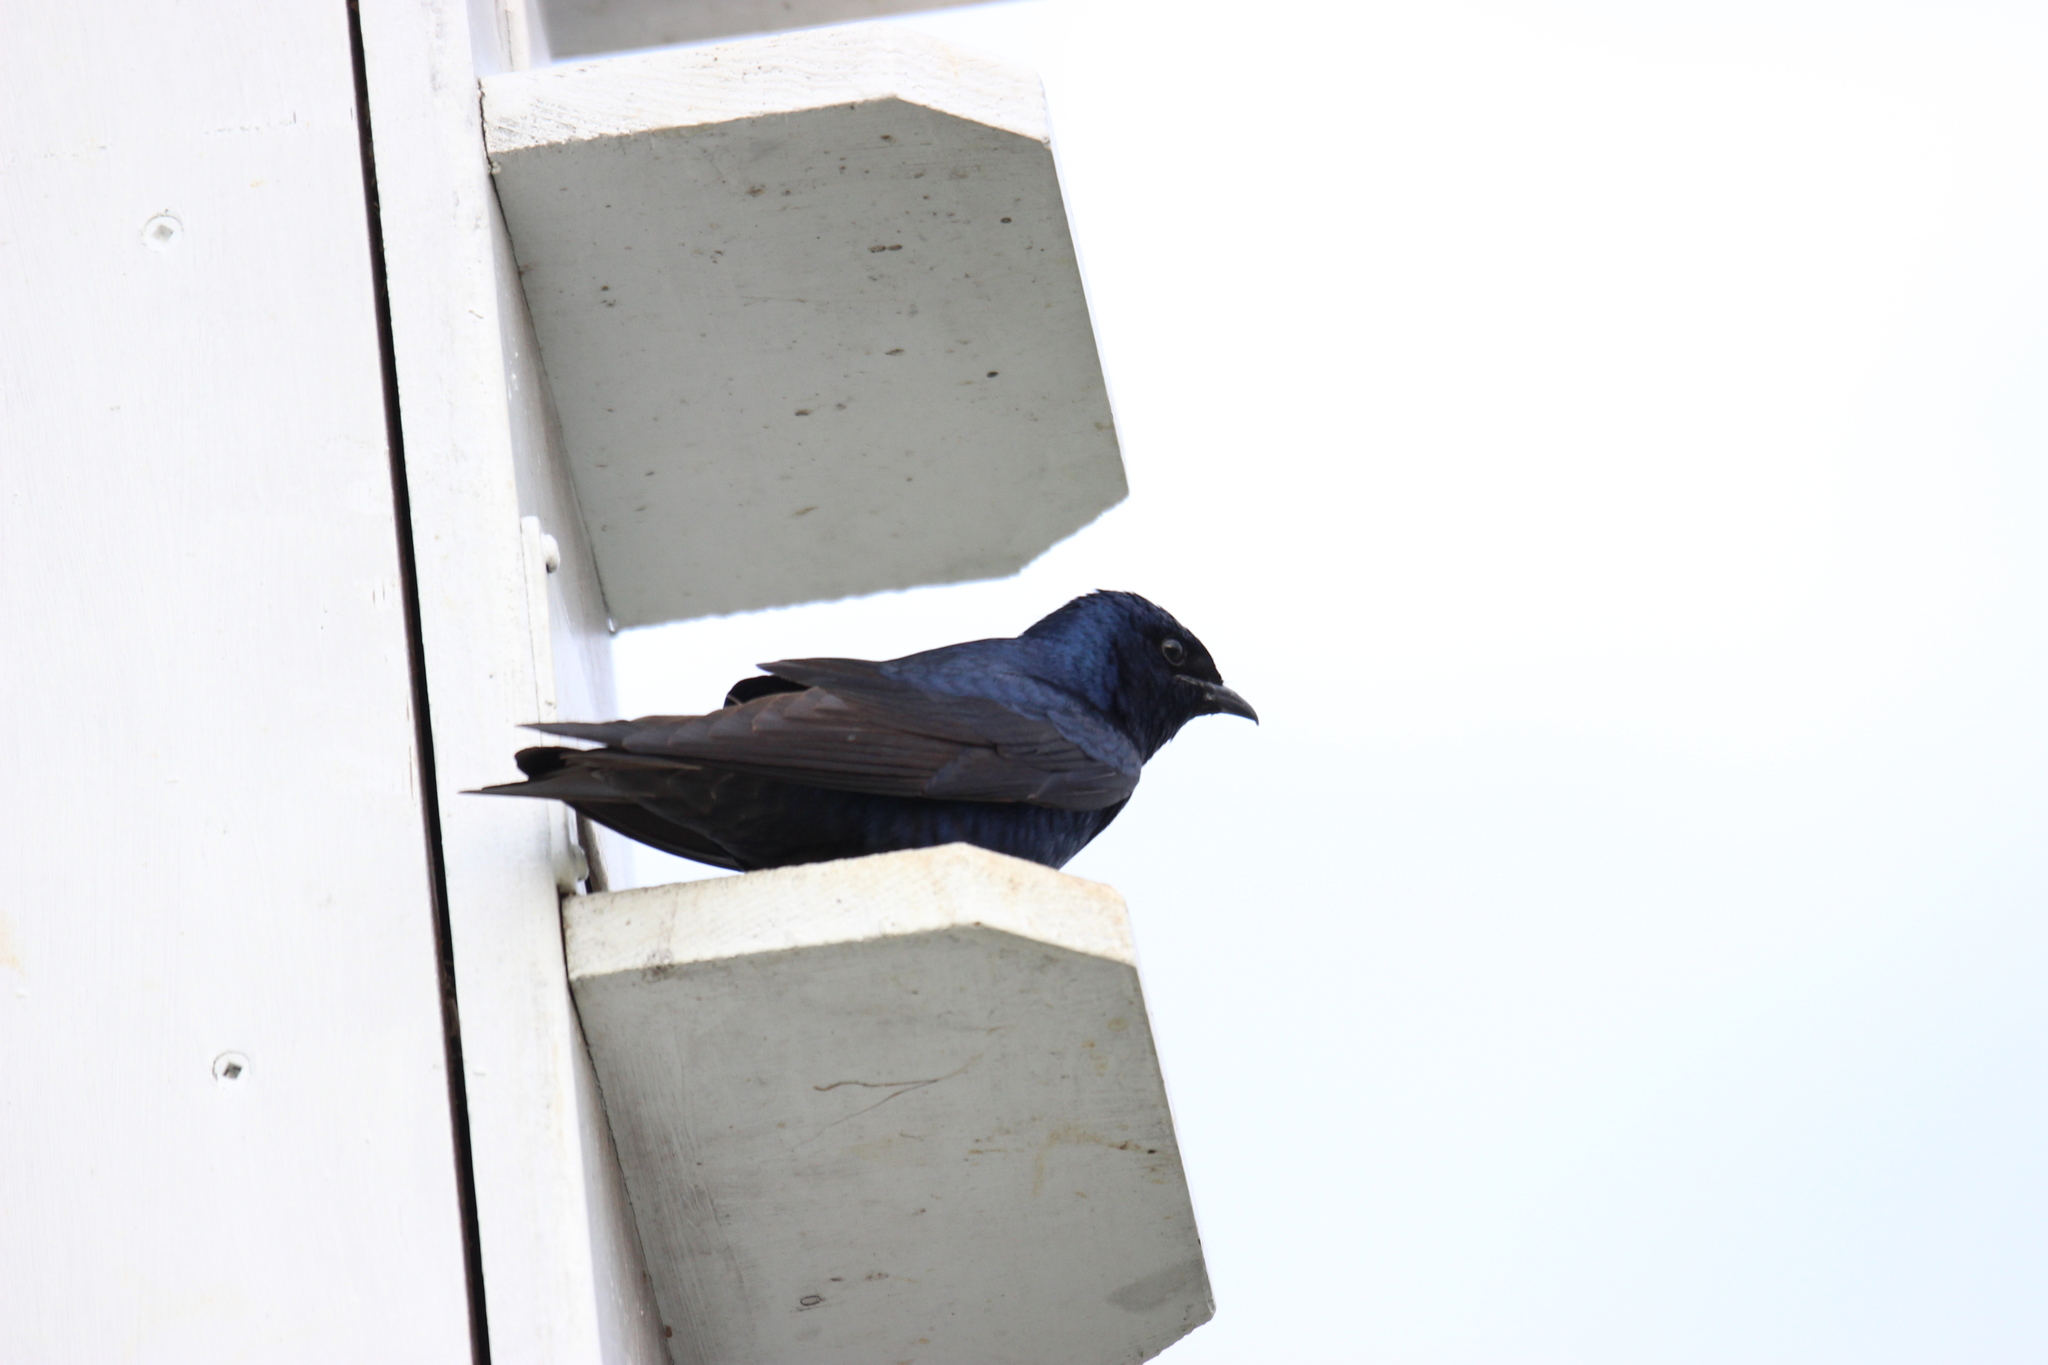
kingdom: Animalia
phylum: Chordata
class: Aves
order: Passeriformes
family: Hirundinidae
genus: Progne
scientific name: Progne subis
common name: Purple martin
